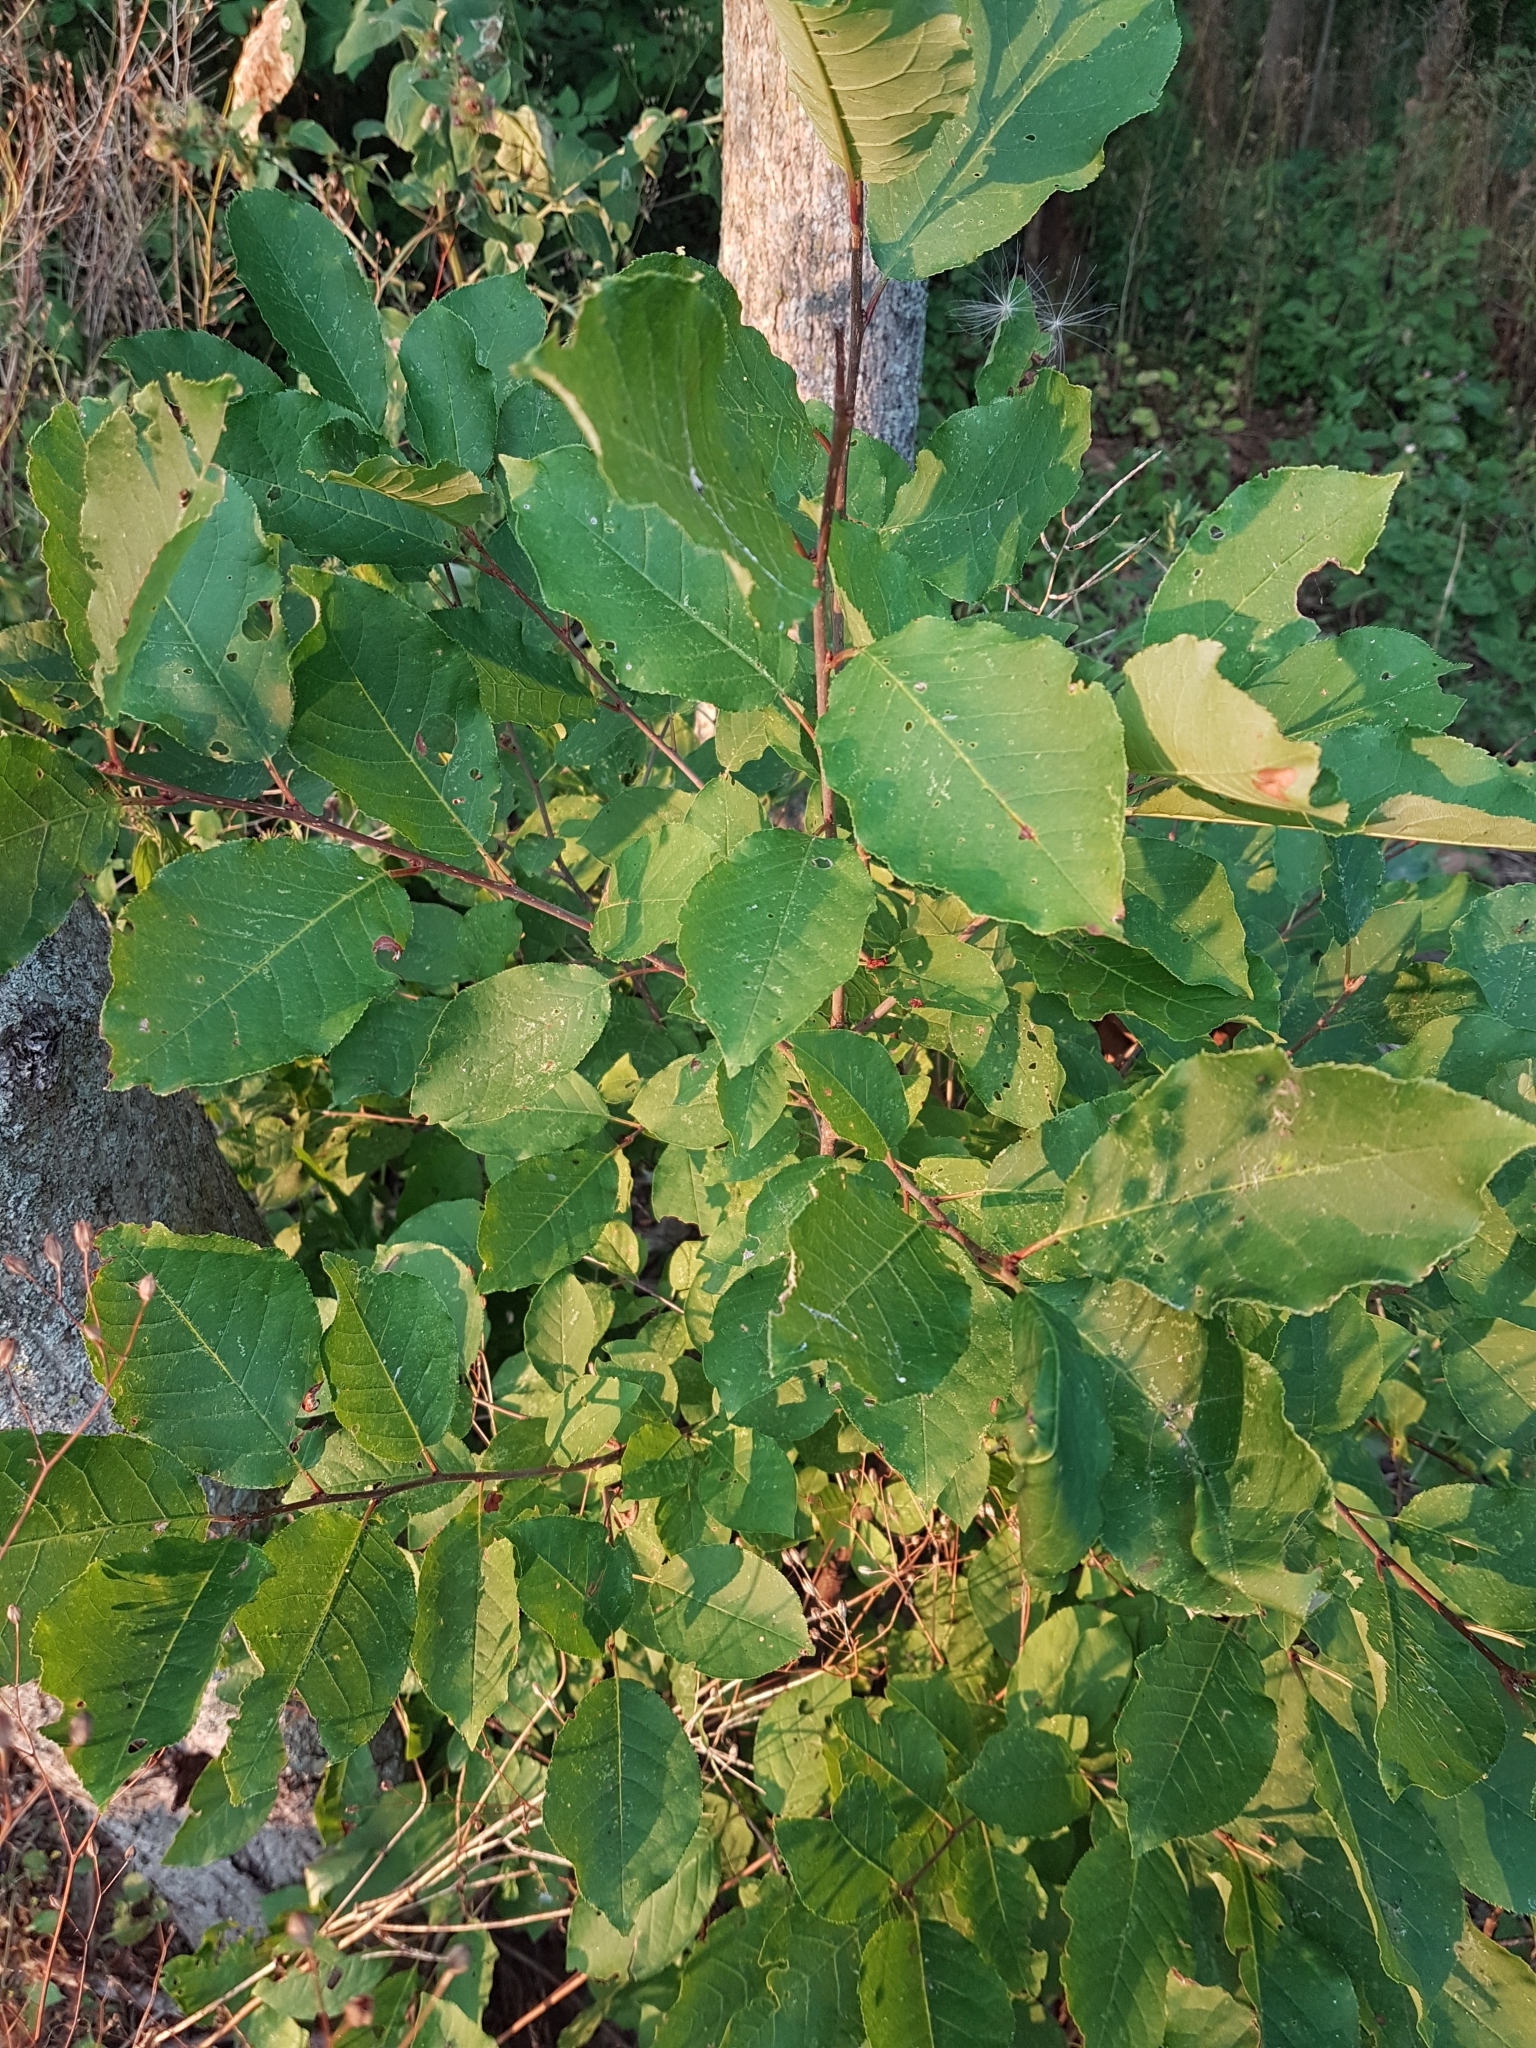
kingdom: Plantae
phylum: Tracheophyta
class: Magnoliopsida
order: Rosales
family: Rosaceae
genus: Prunus
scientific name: Prunus virginiana
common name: Chokecherry
